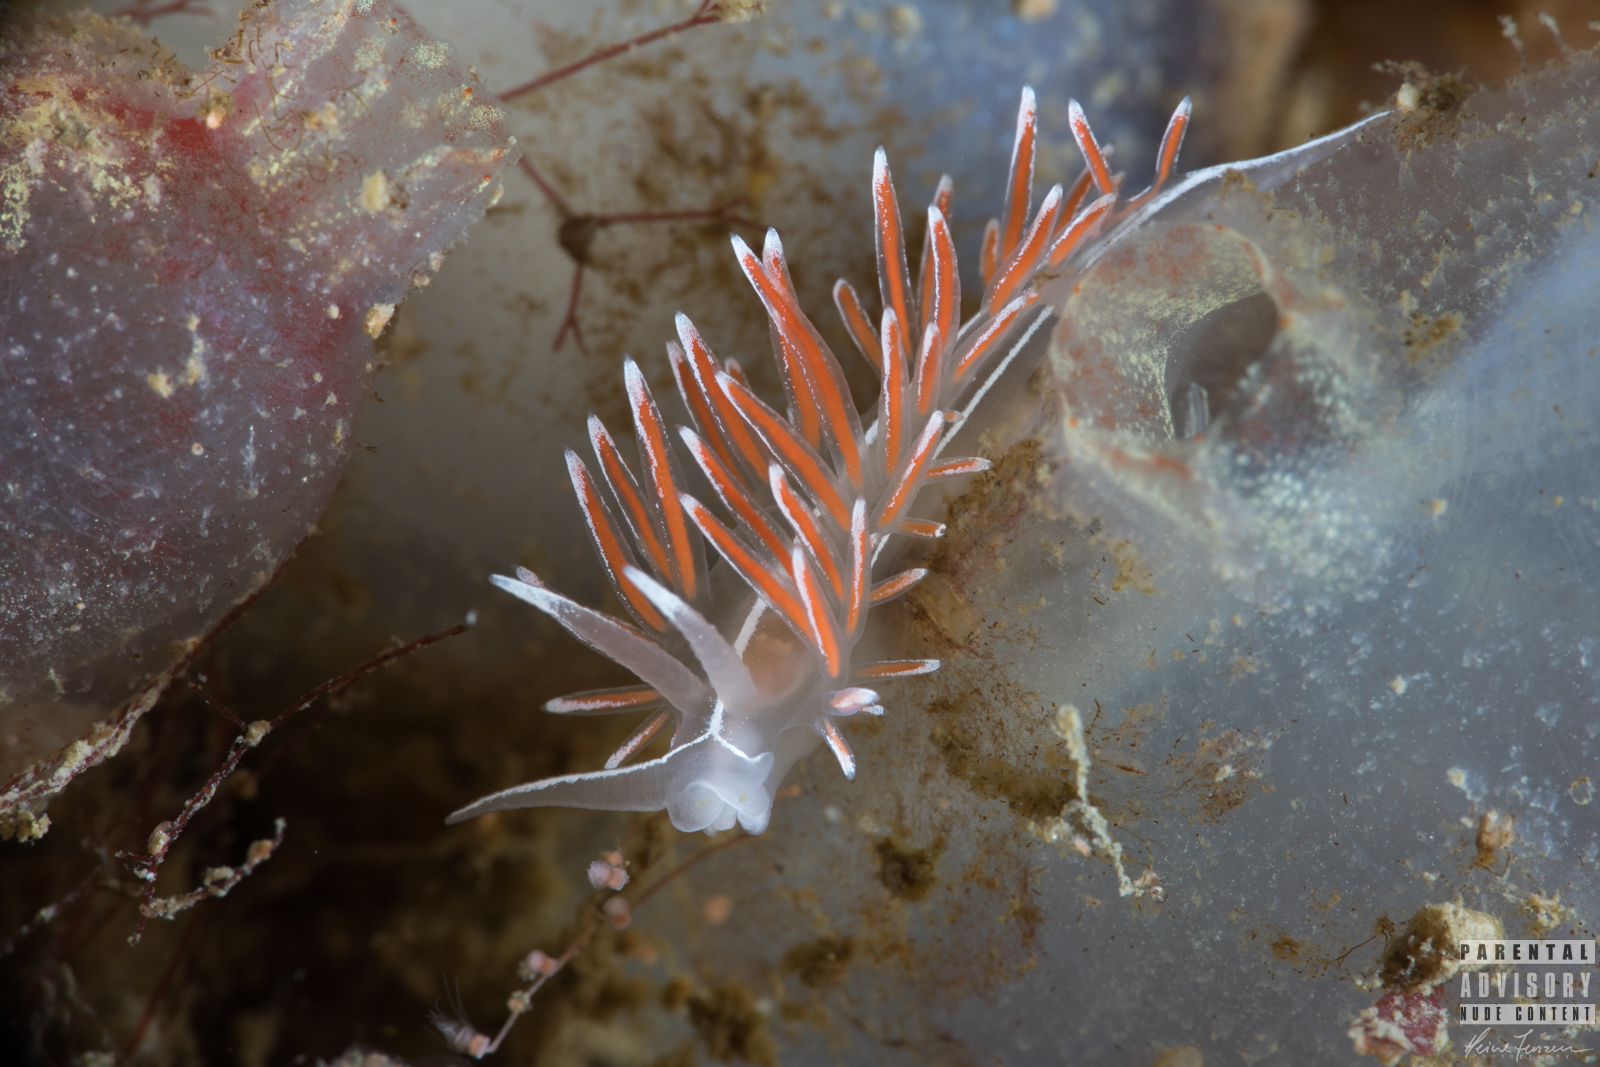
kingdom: Animalia
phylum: Mollusca
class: Gastropoda
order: Nudibranchia
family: Coryphellidae
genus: Coryphella
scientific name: Coryphella lineata
